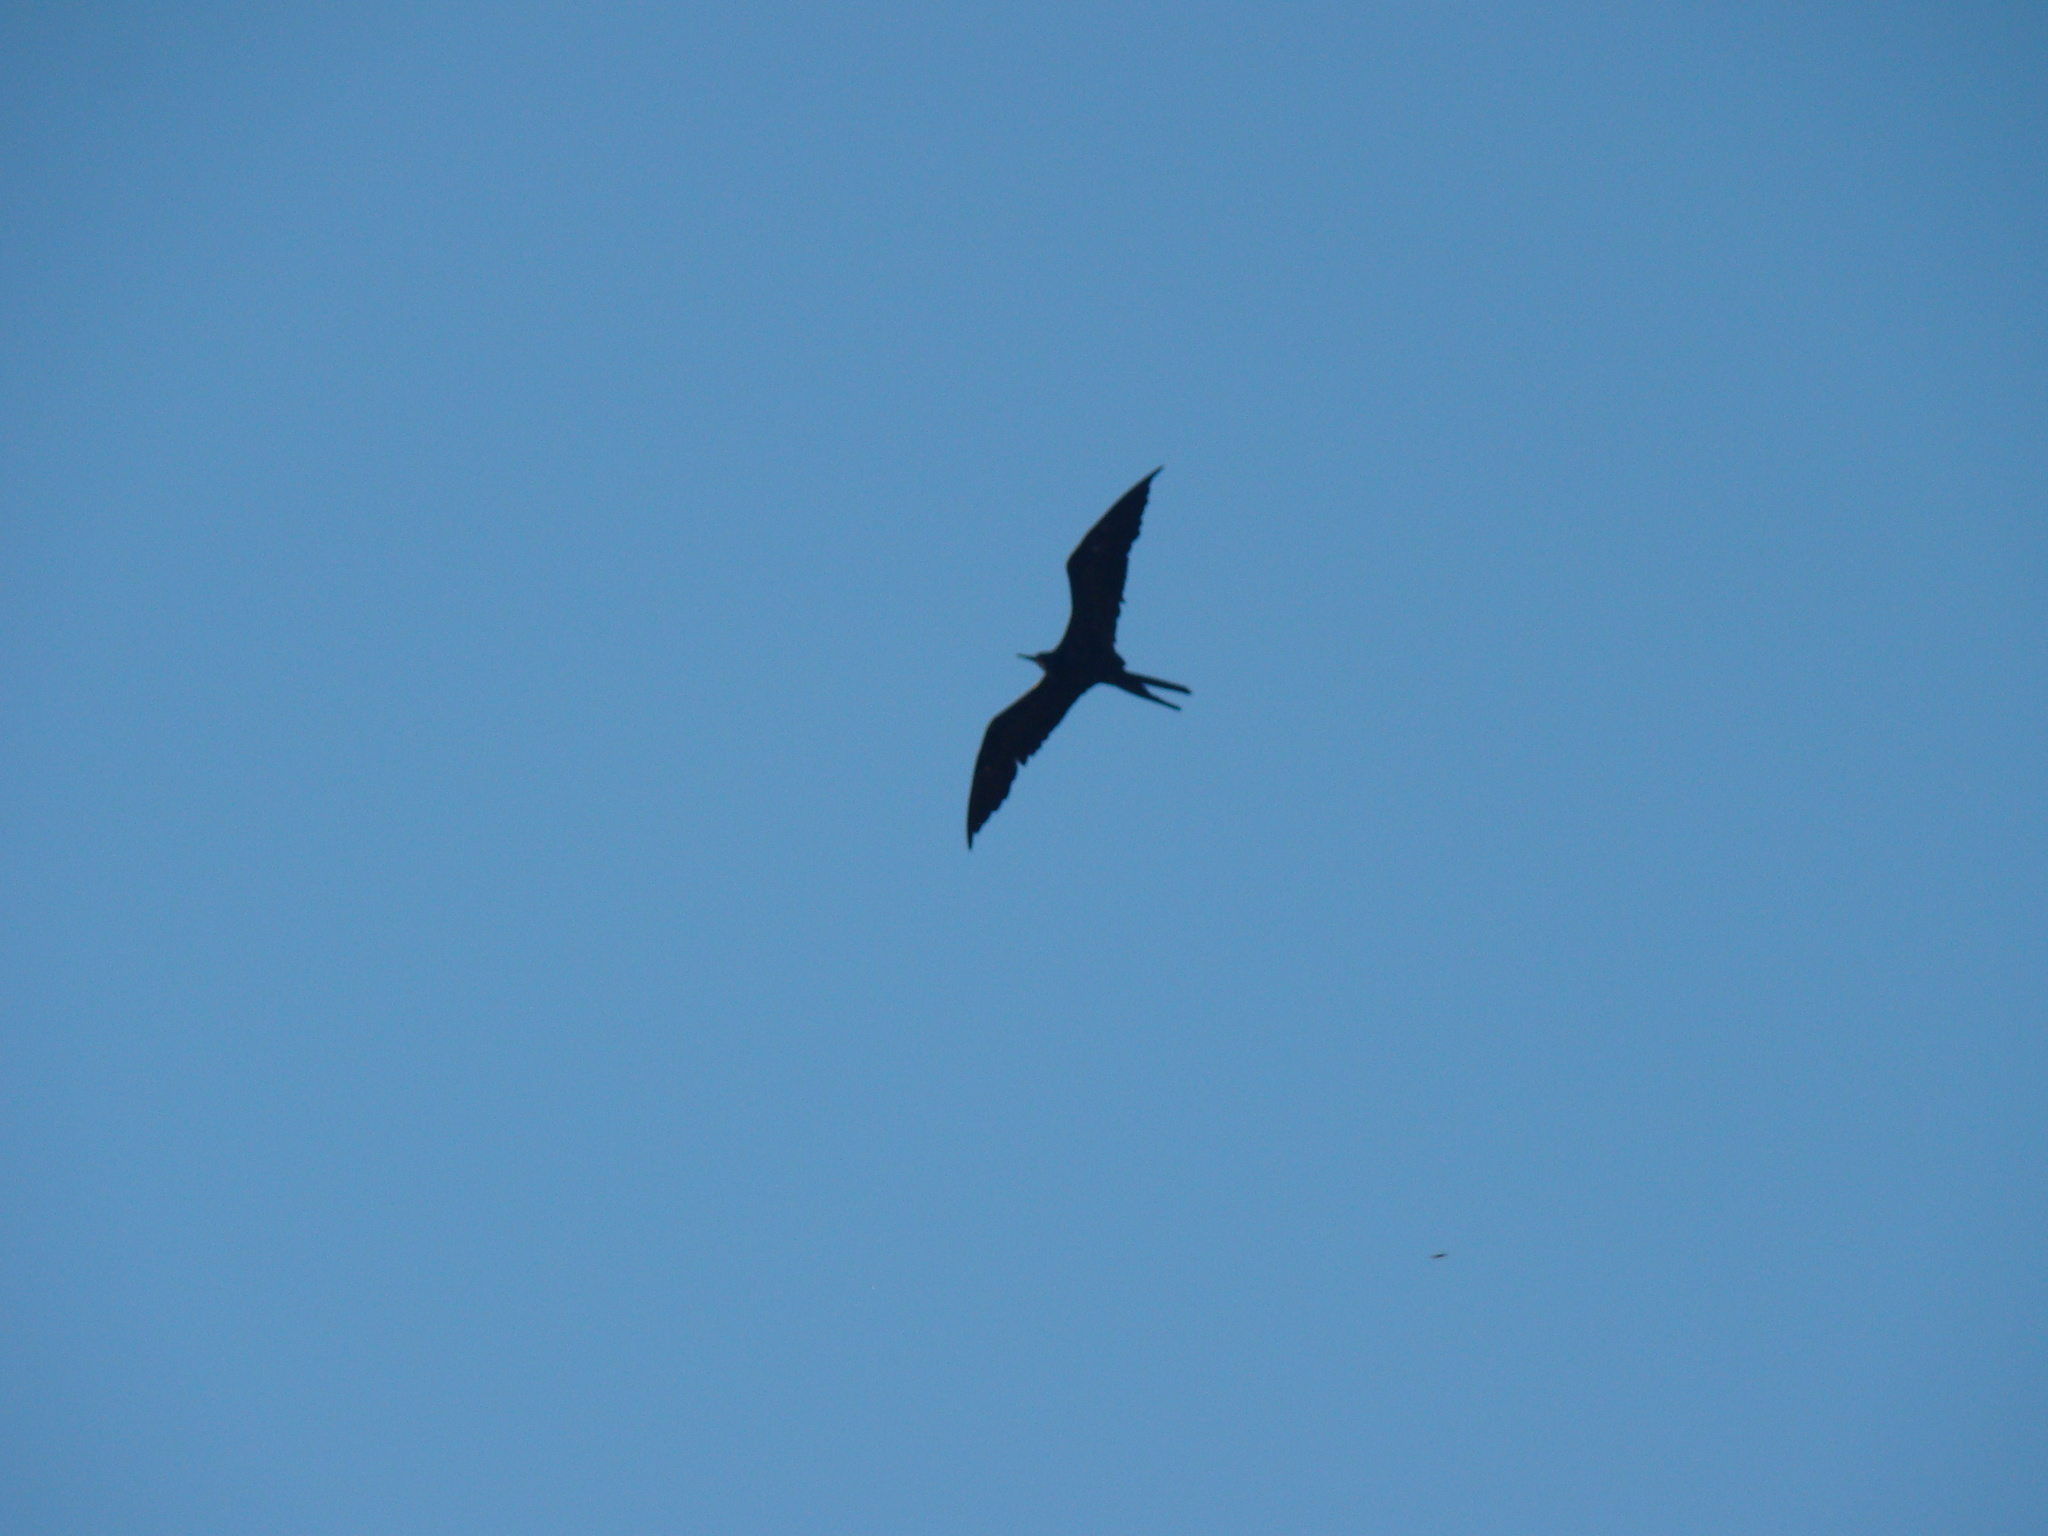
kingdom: Animalia
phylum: Chordata
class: Aves
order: Suliformes
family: Fregatidae
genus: Fregata
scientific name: Fregata magnificens
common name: Magnificent frigatebird
